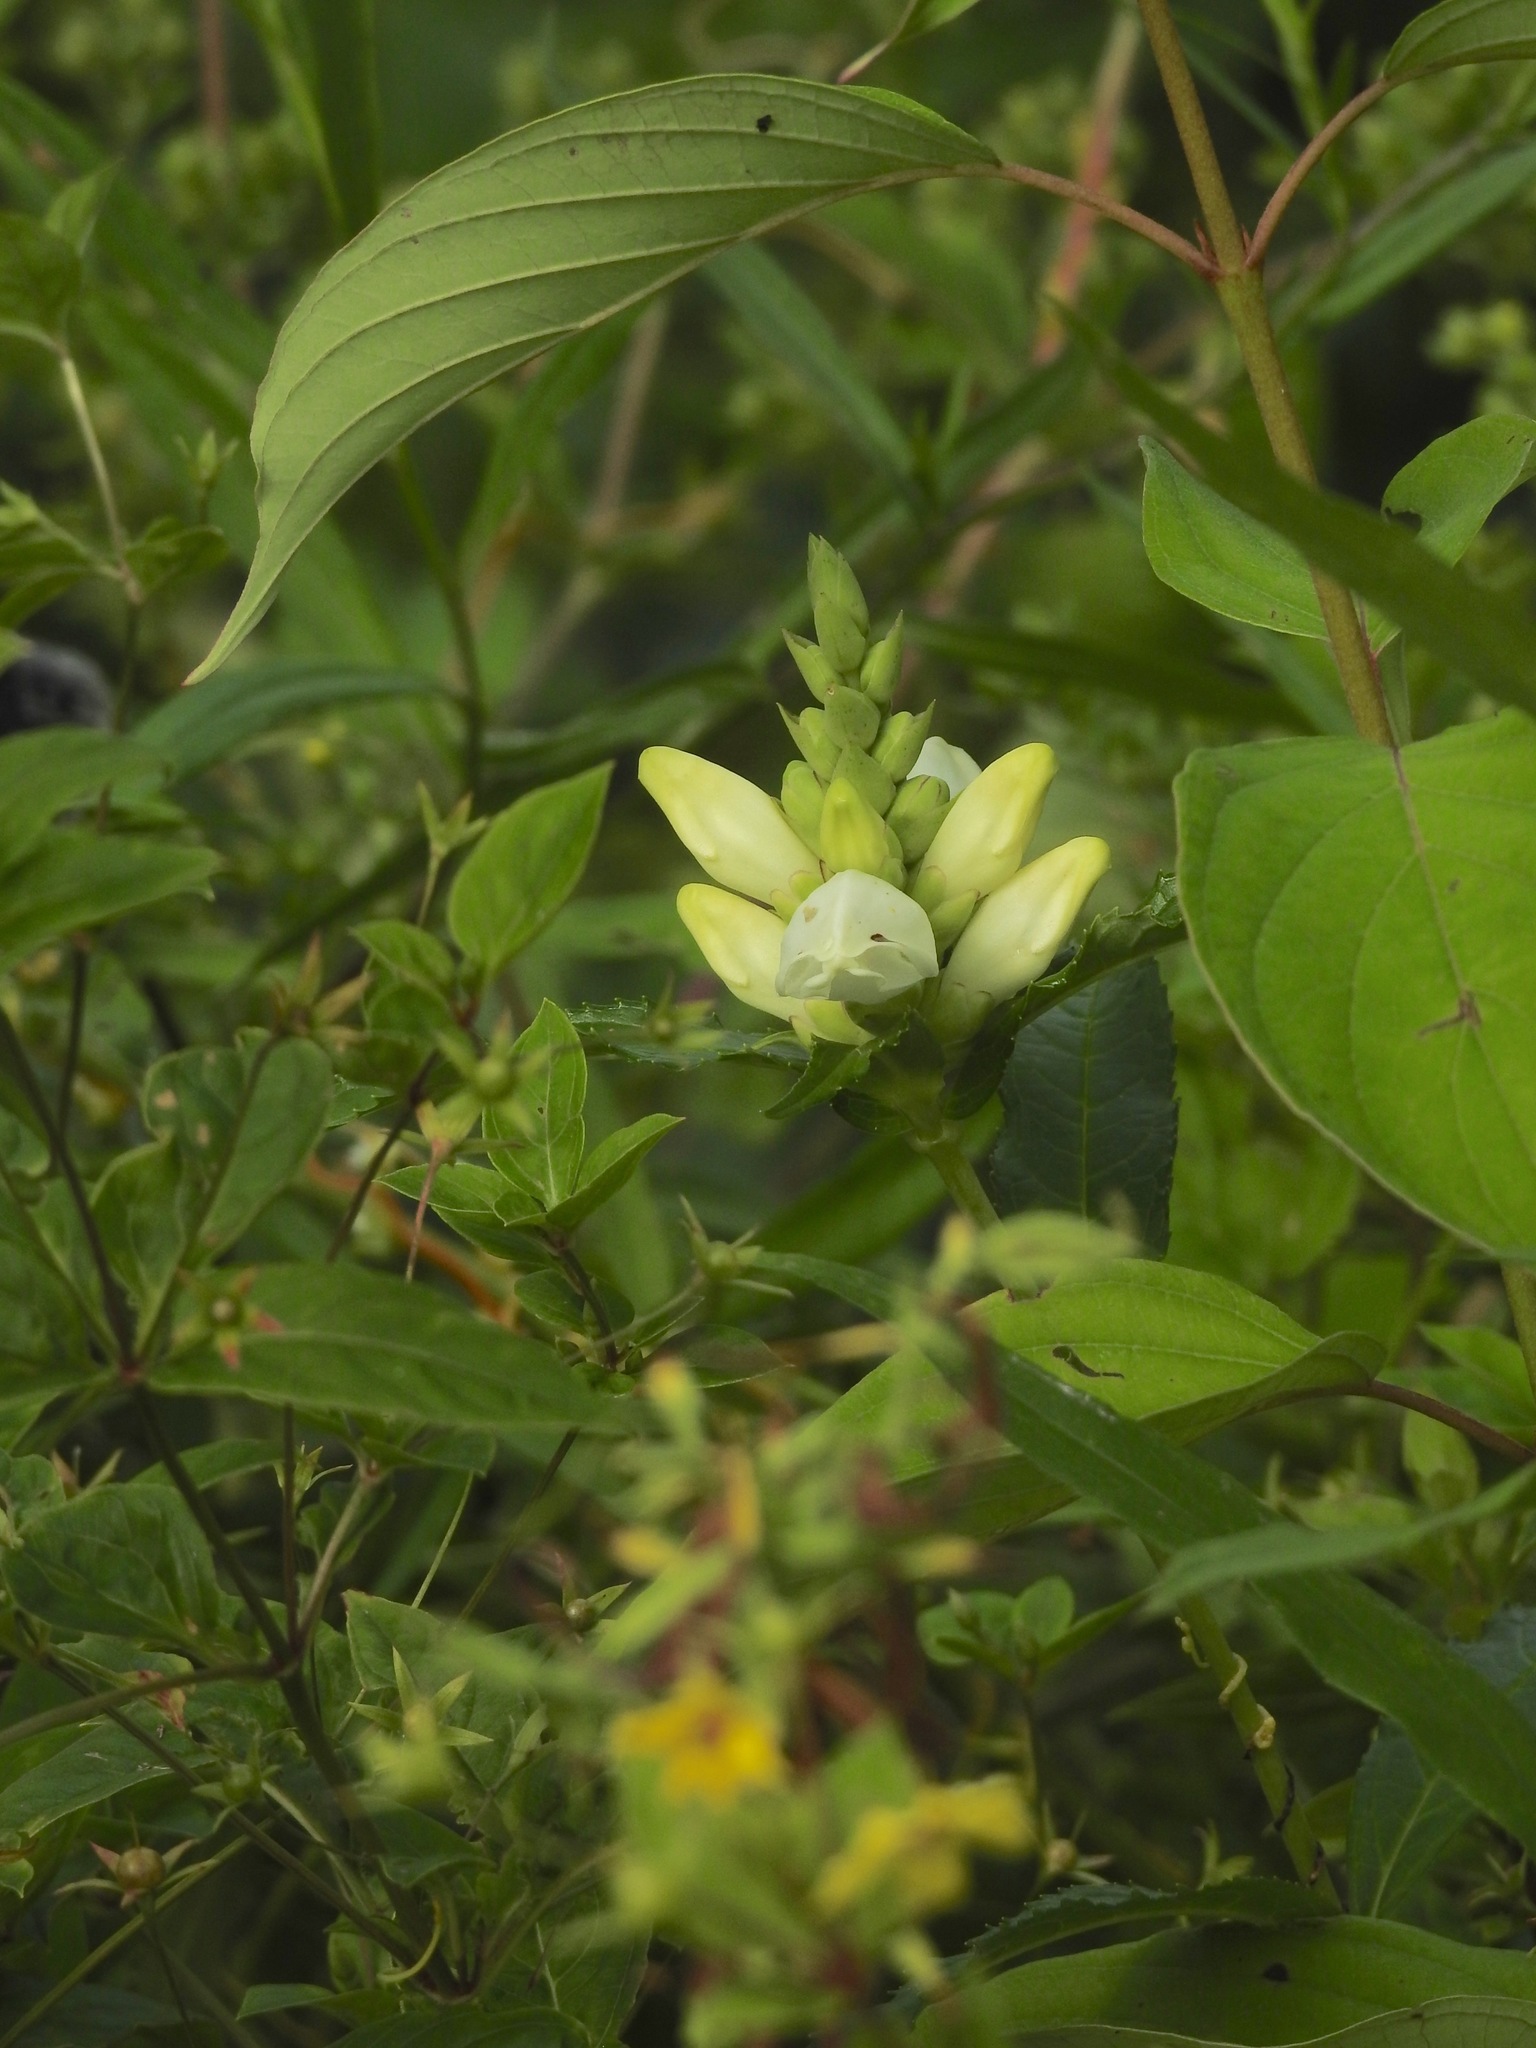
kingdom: Plantae
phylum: Tracheophyta
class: Magnoliopsida
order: Lamiales
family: Plantaginaceae
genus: Chelone
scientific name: Chelone glabra
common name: Snakehead
